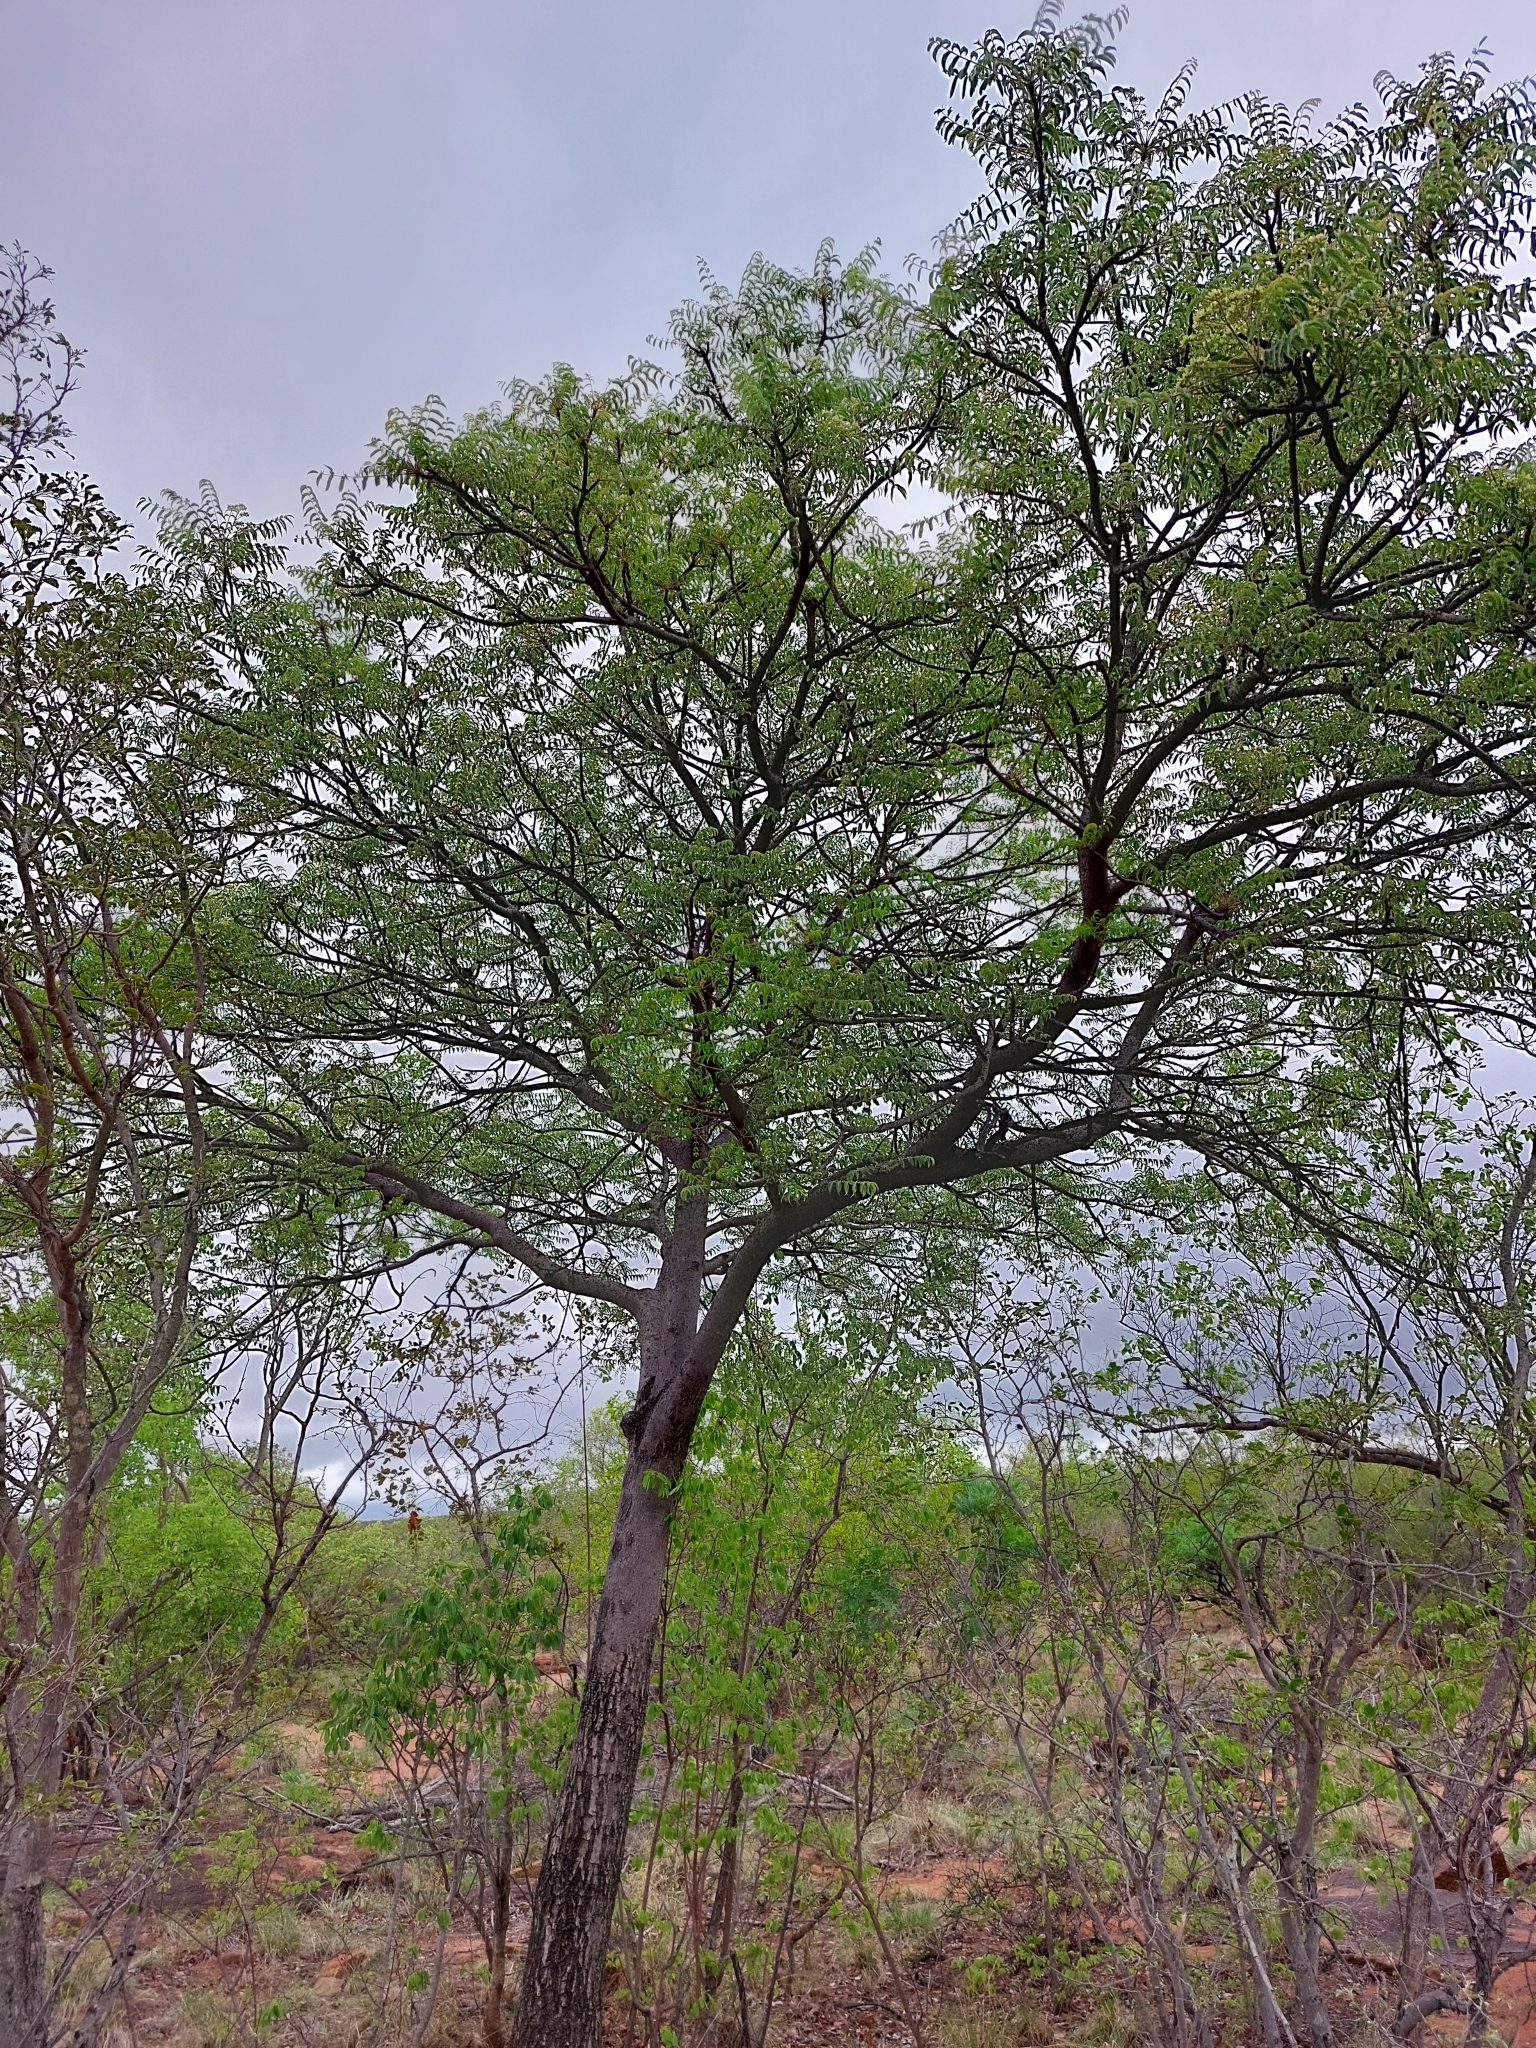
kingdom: Plantae
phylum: Tracheophyta
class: Magnoliopsida
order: Sapindales
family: Kirkiaceae
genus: Kirkia
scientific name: Kirkia acuminata
